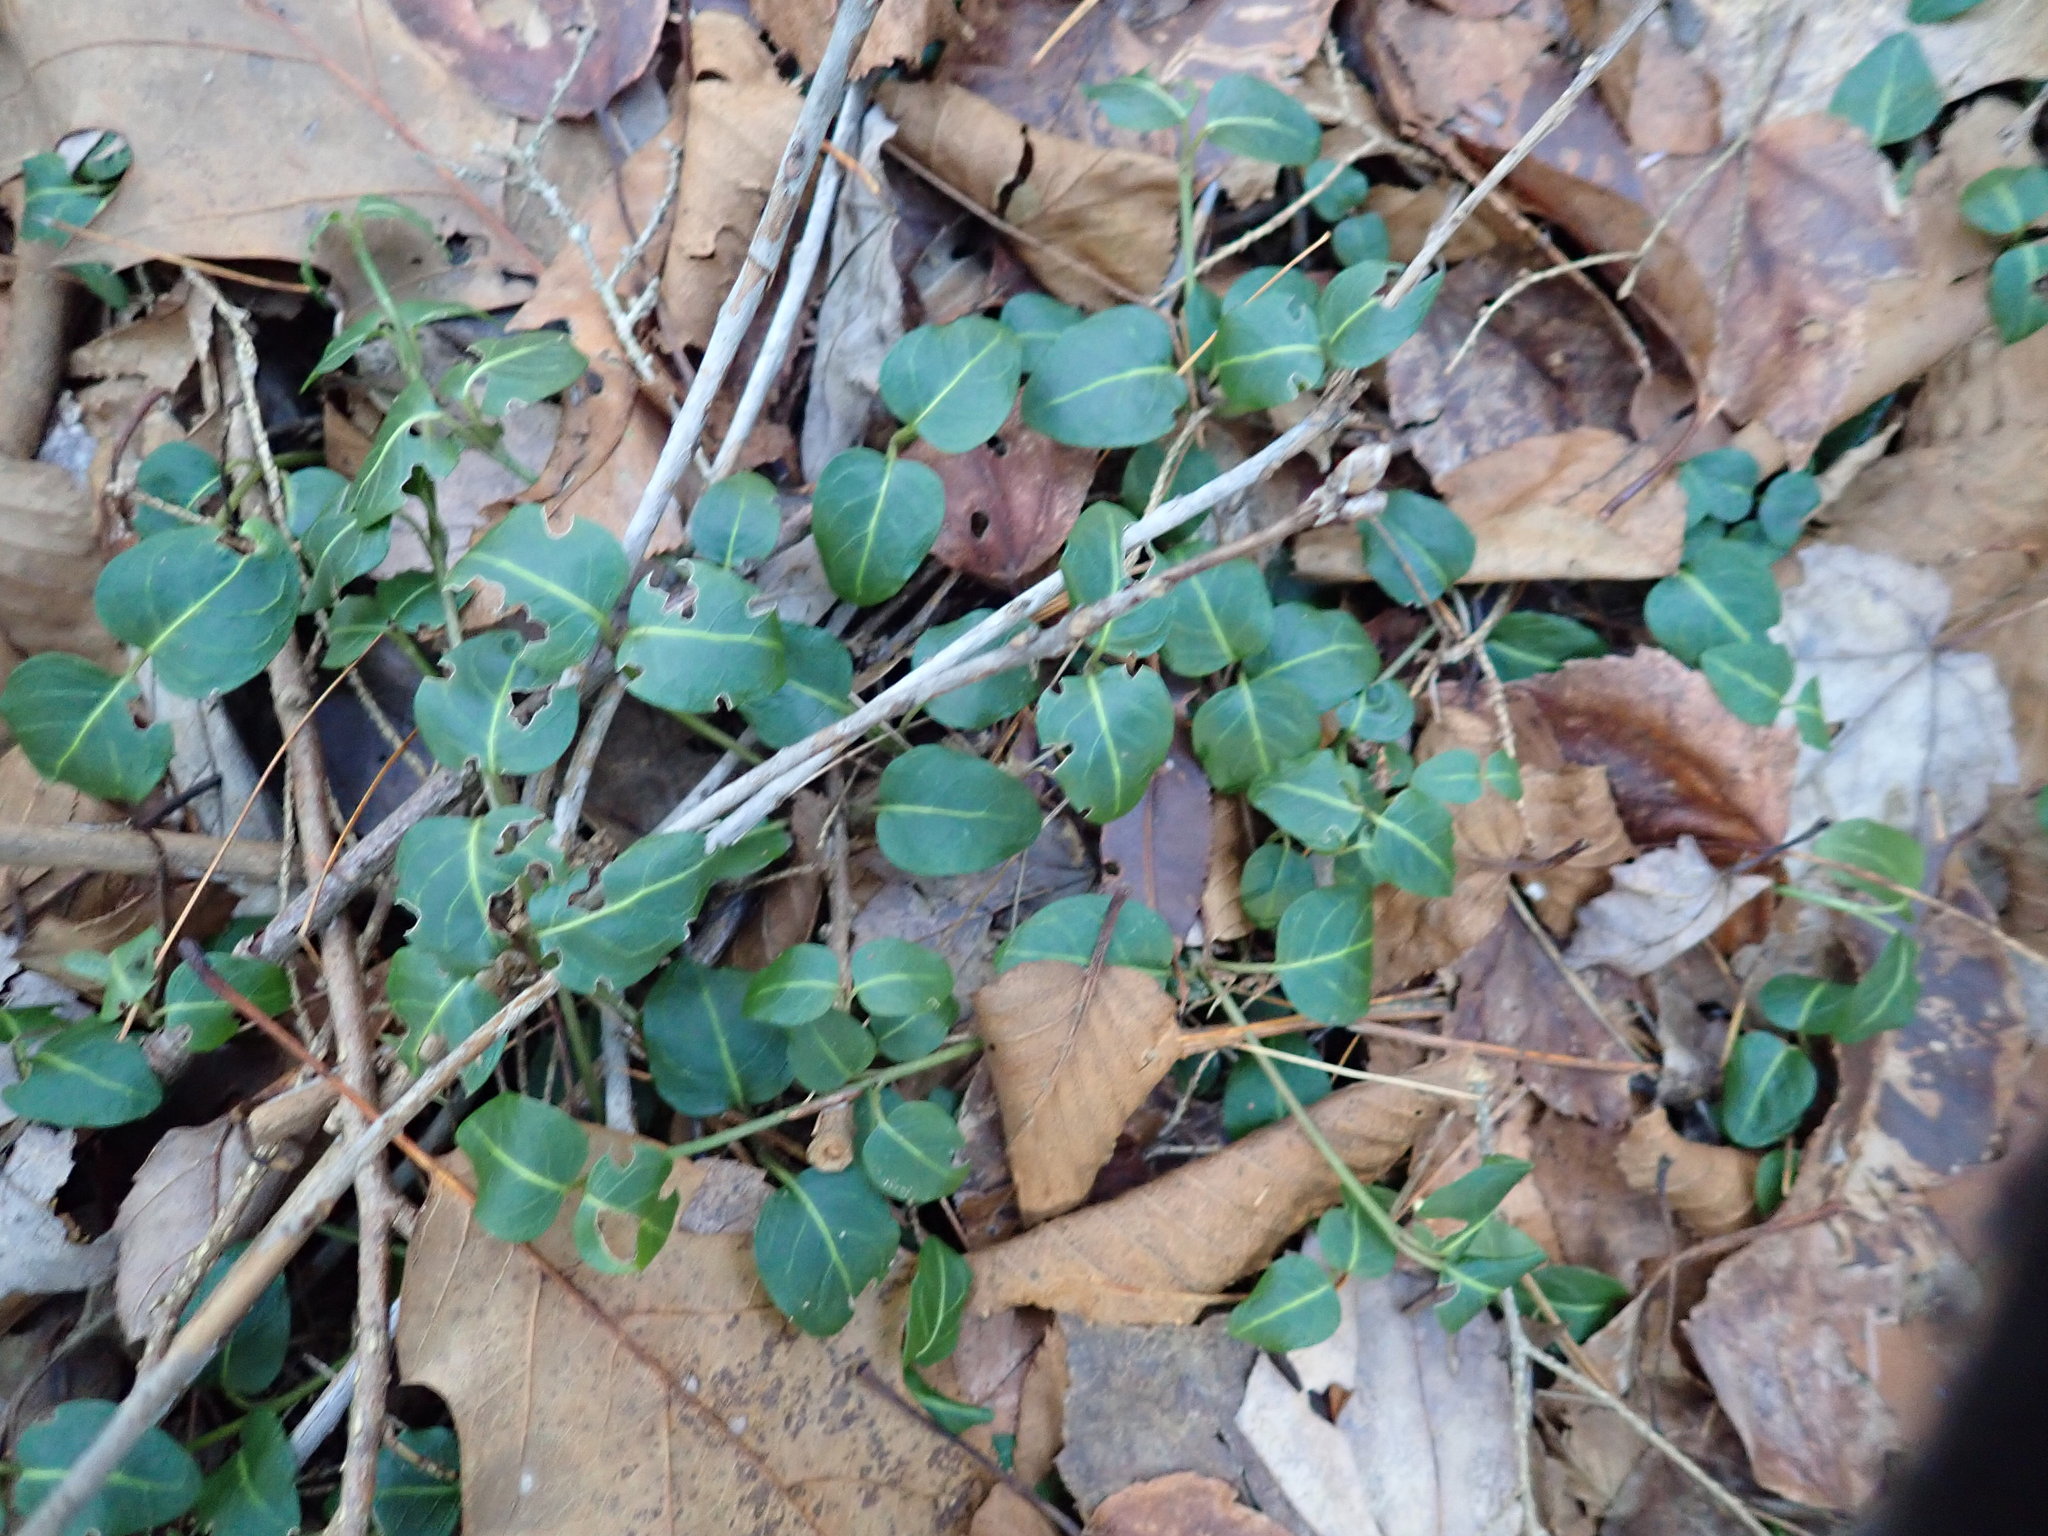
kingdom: Plantae
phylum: Tracheophyta
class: Magnoliopsida
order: Gentianales
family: Rubiaceae
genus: Mitchella
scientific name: Mitchella repens
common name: Partridge-berry
